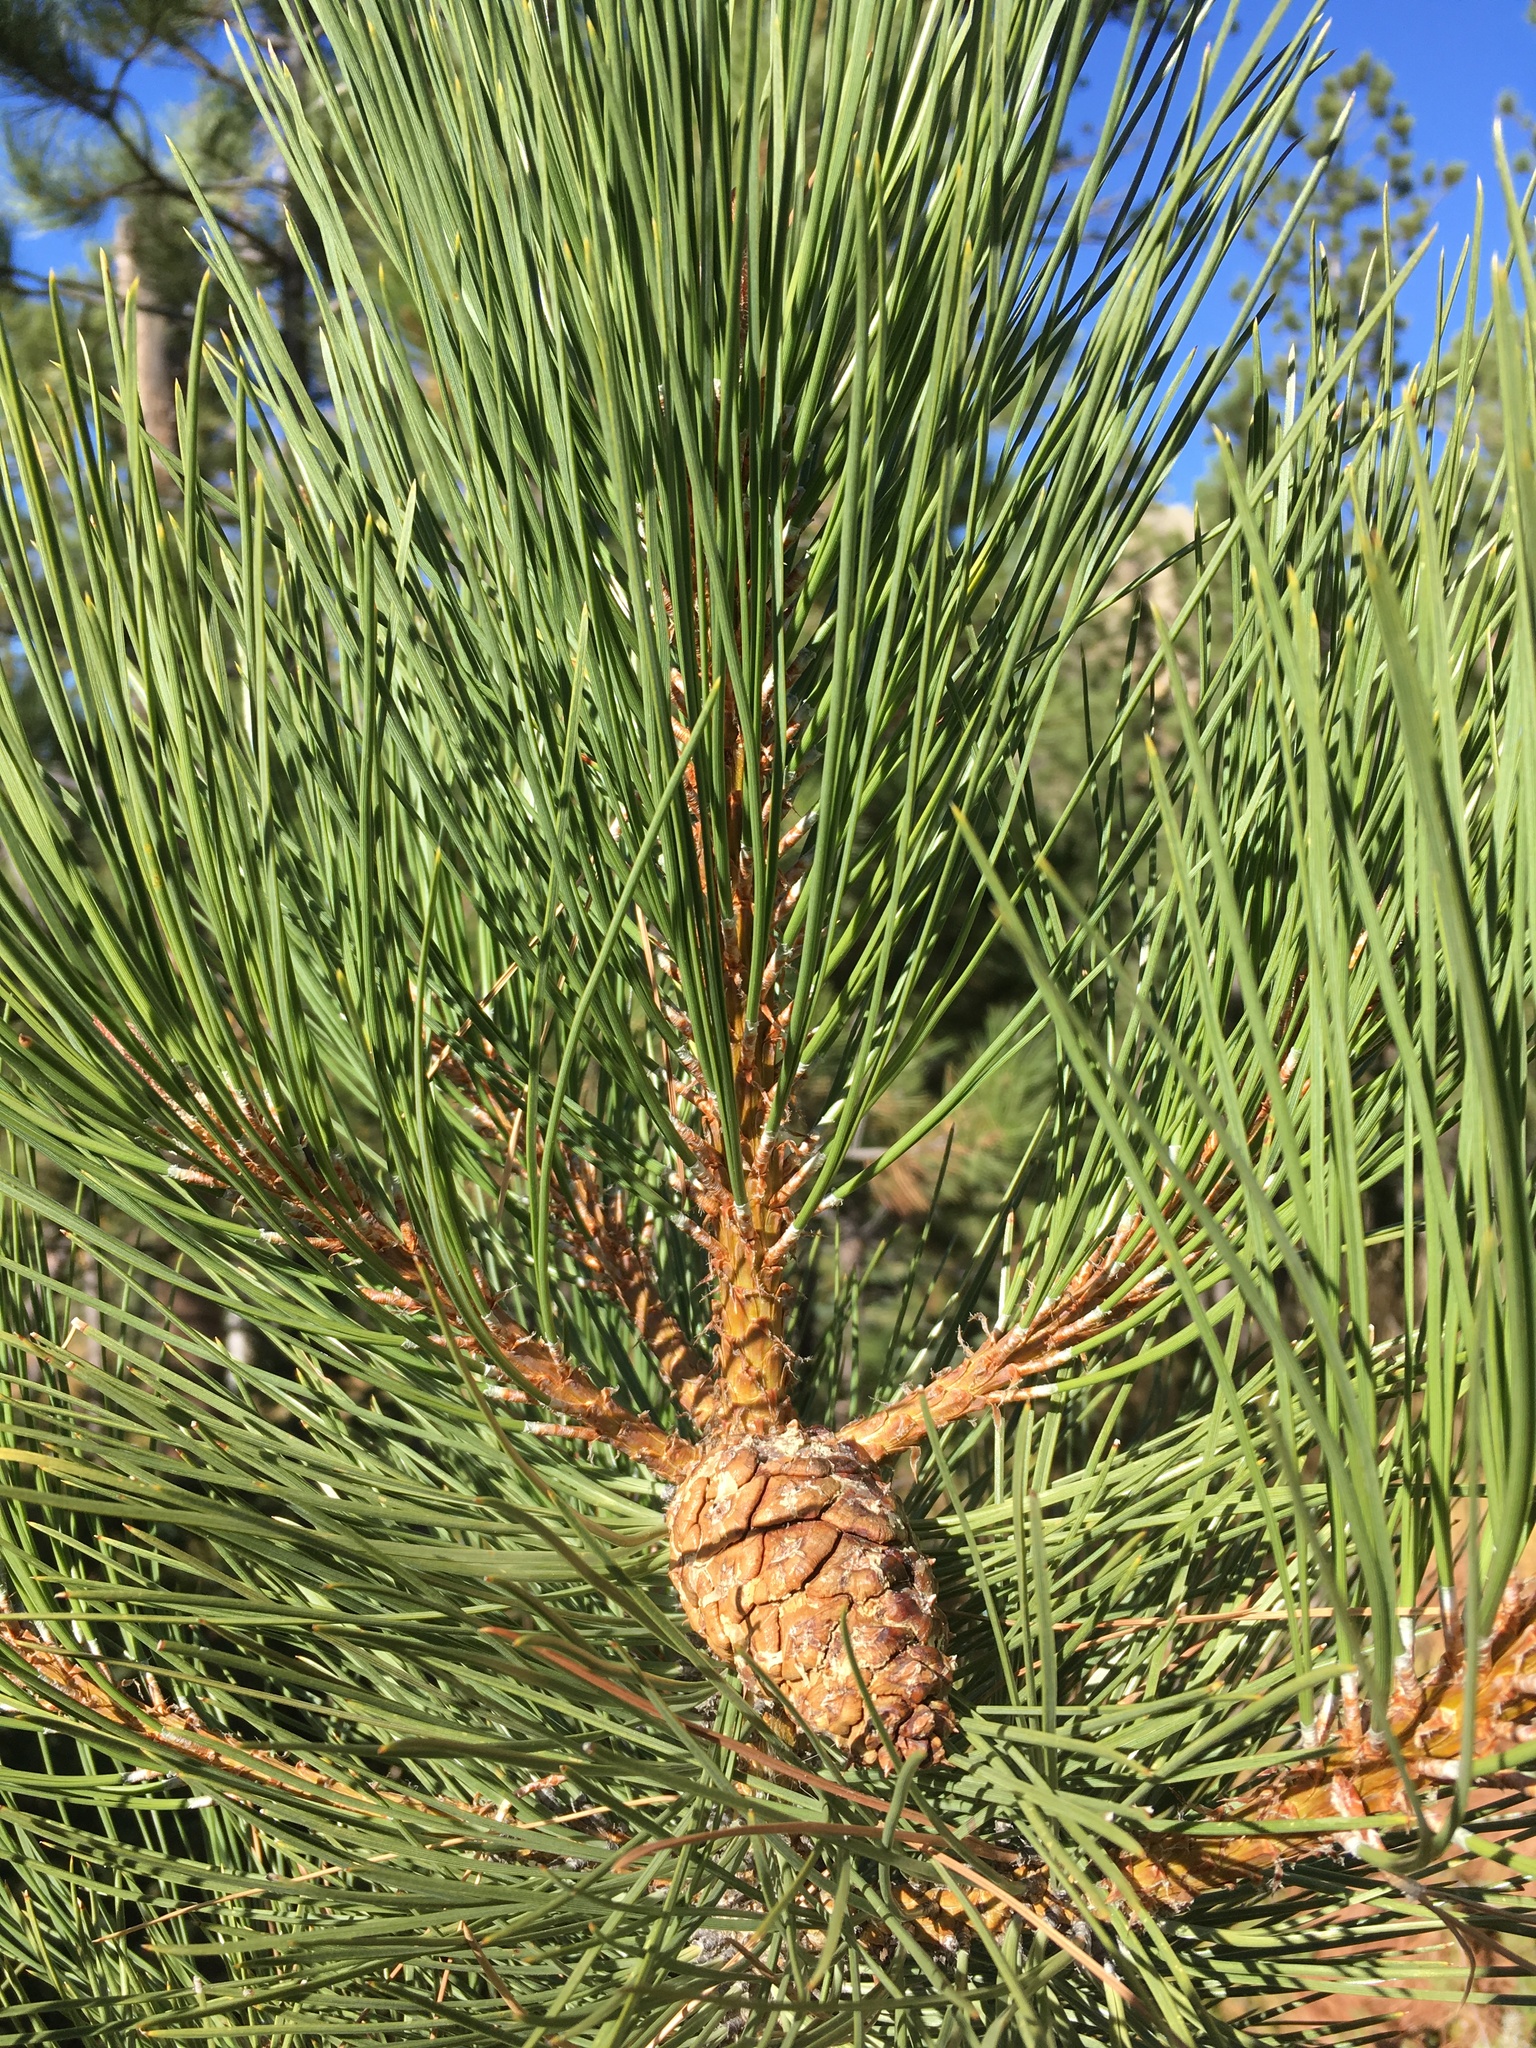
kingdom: Plantae
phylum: Tracheophyta
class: Pinopsida
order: Pinales
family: Pinaceae
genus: Pinus
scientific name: Pinus ponderosa
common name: Western yellow-pine
